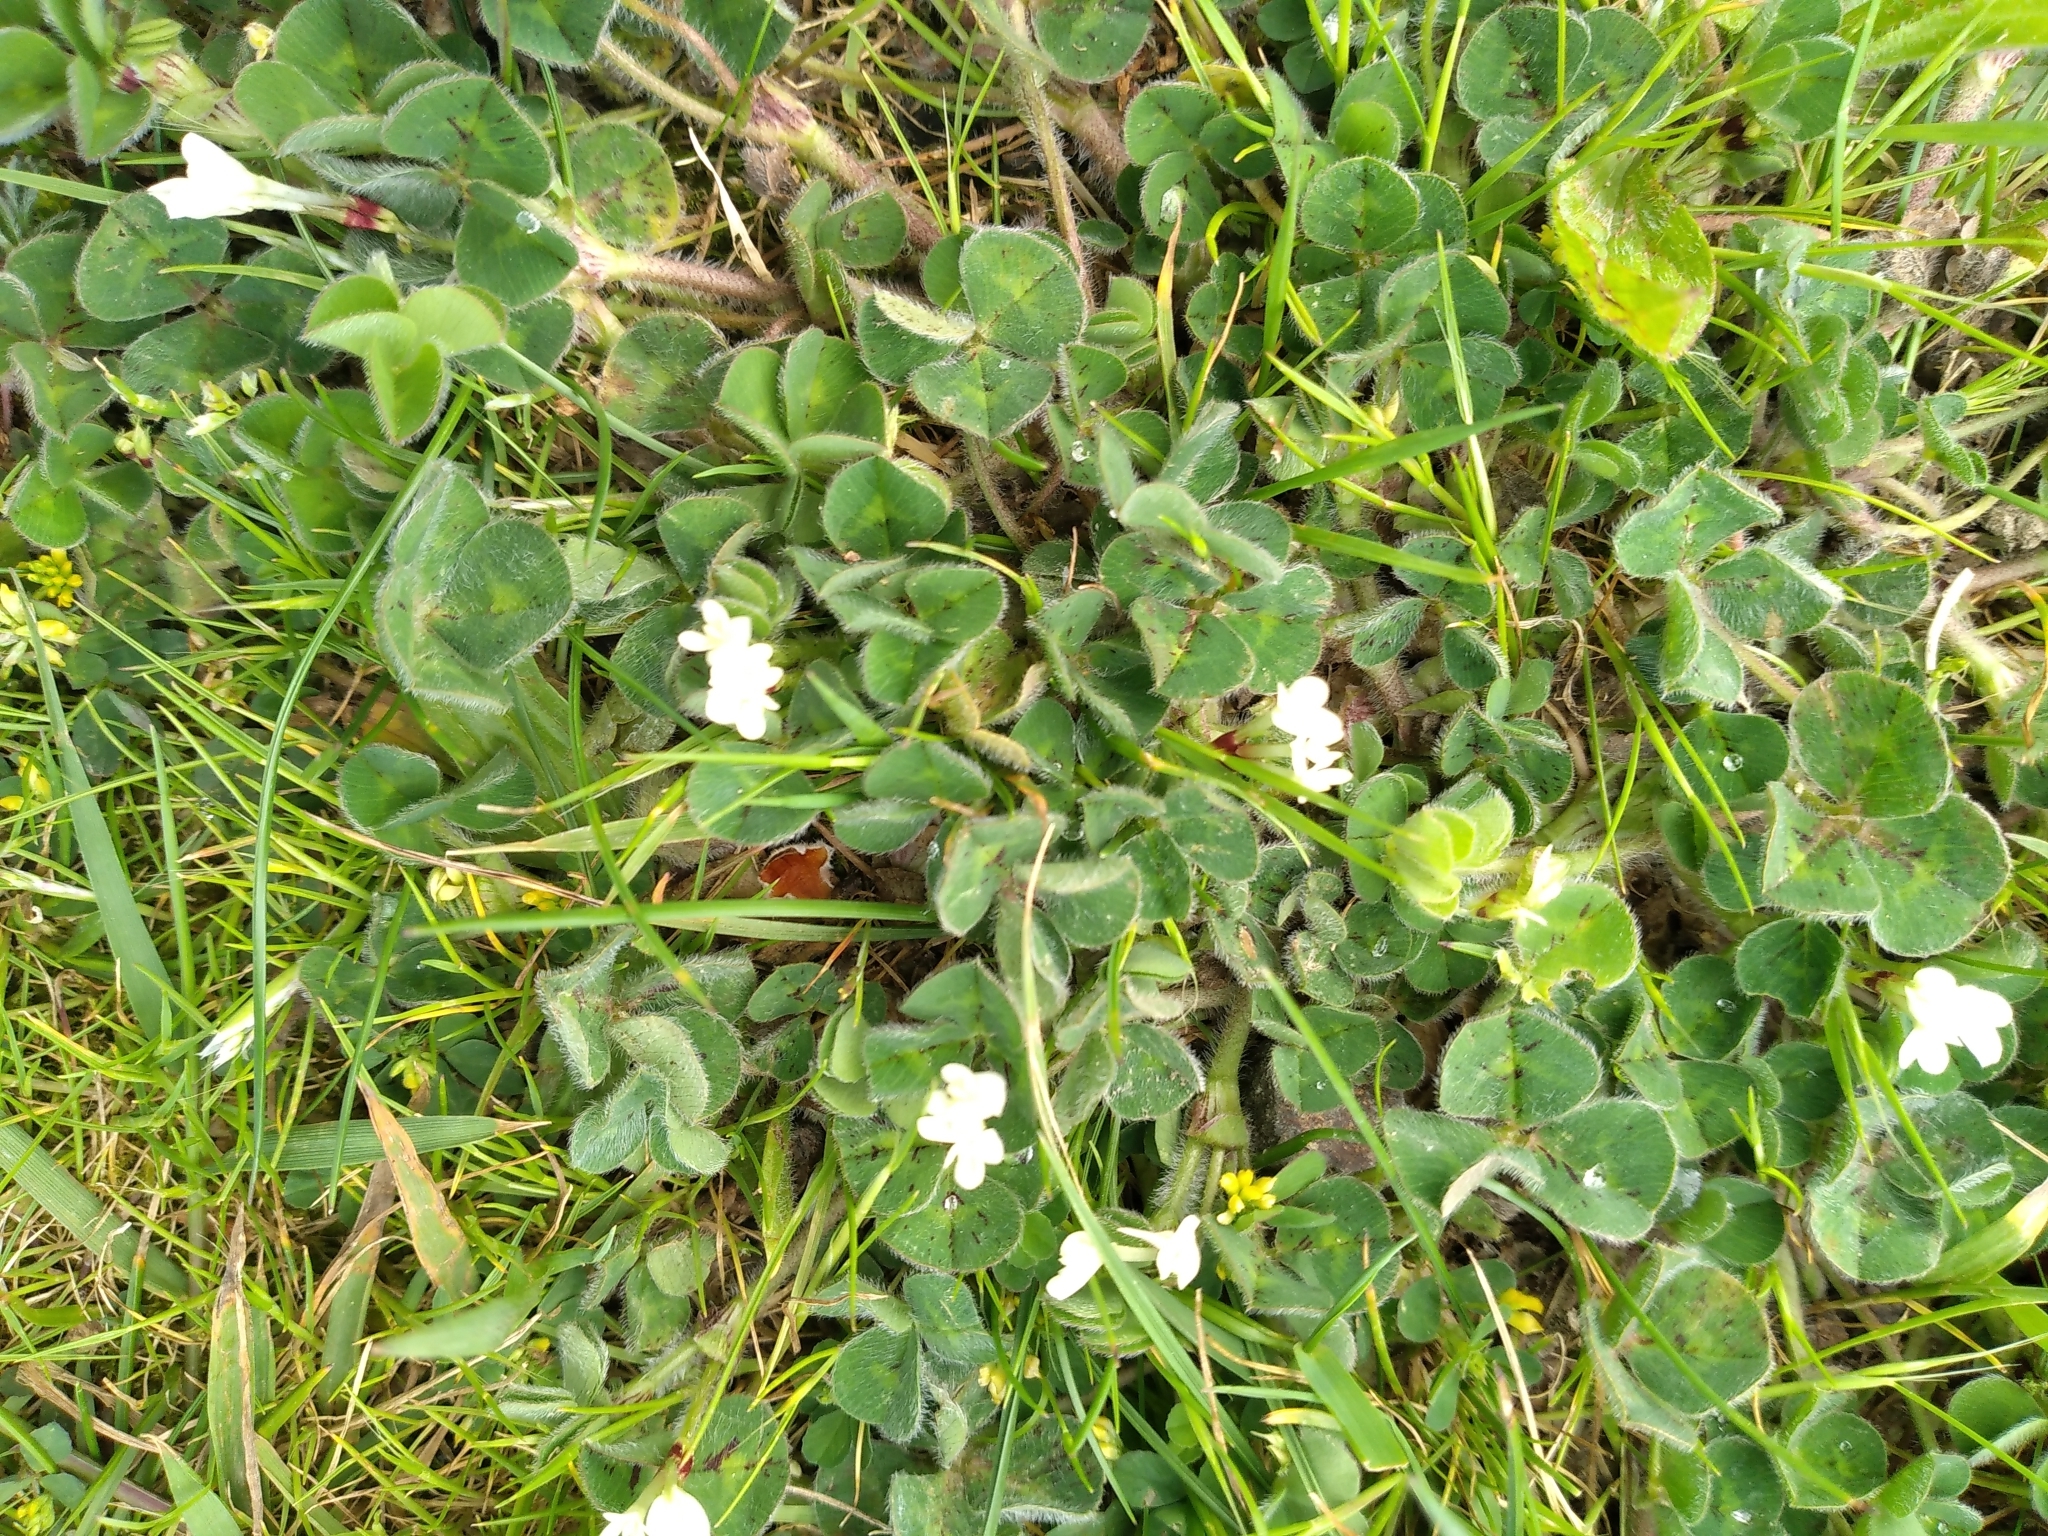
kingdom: Plantae
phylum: Tracheophyta
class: Magnoliopsida
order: Fabales
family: Fabaceae
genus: Trifolium
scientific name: Trifolium subterraneum
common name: Subterranean clover
